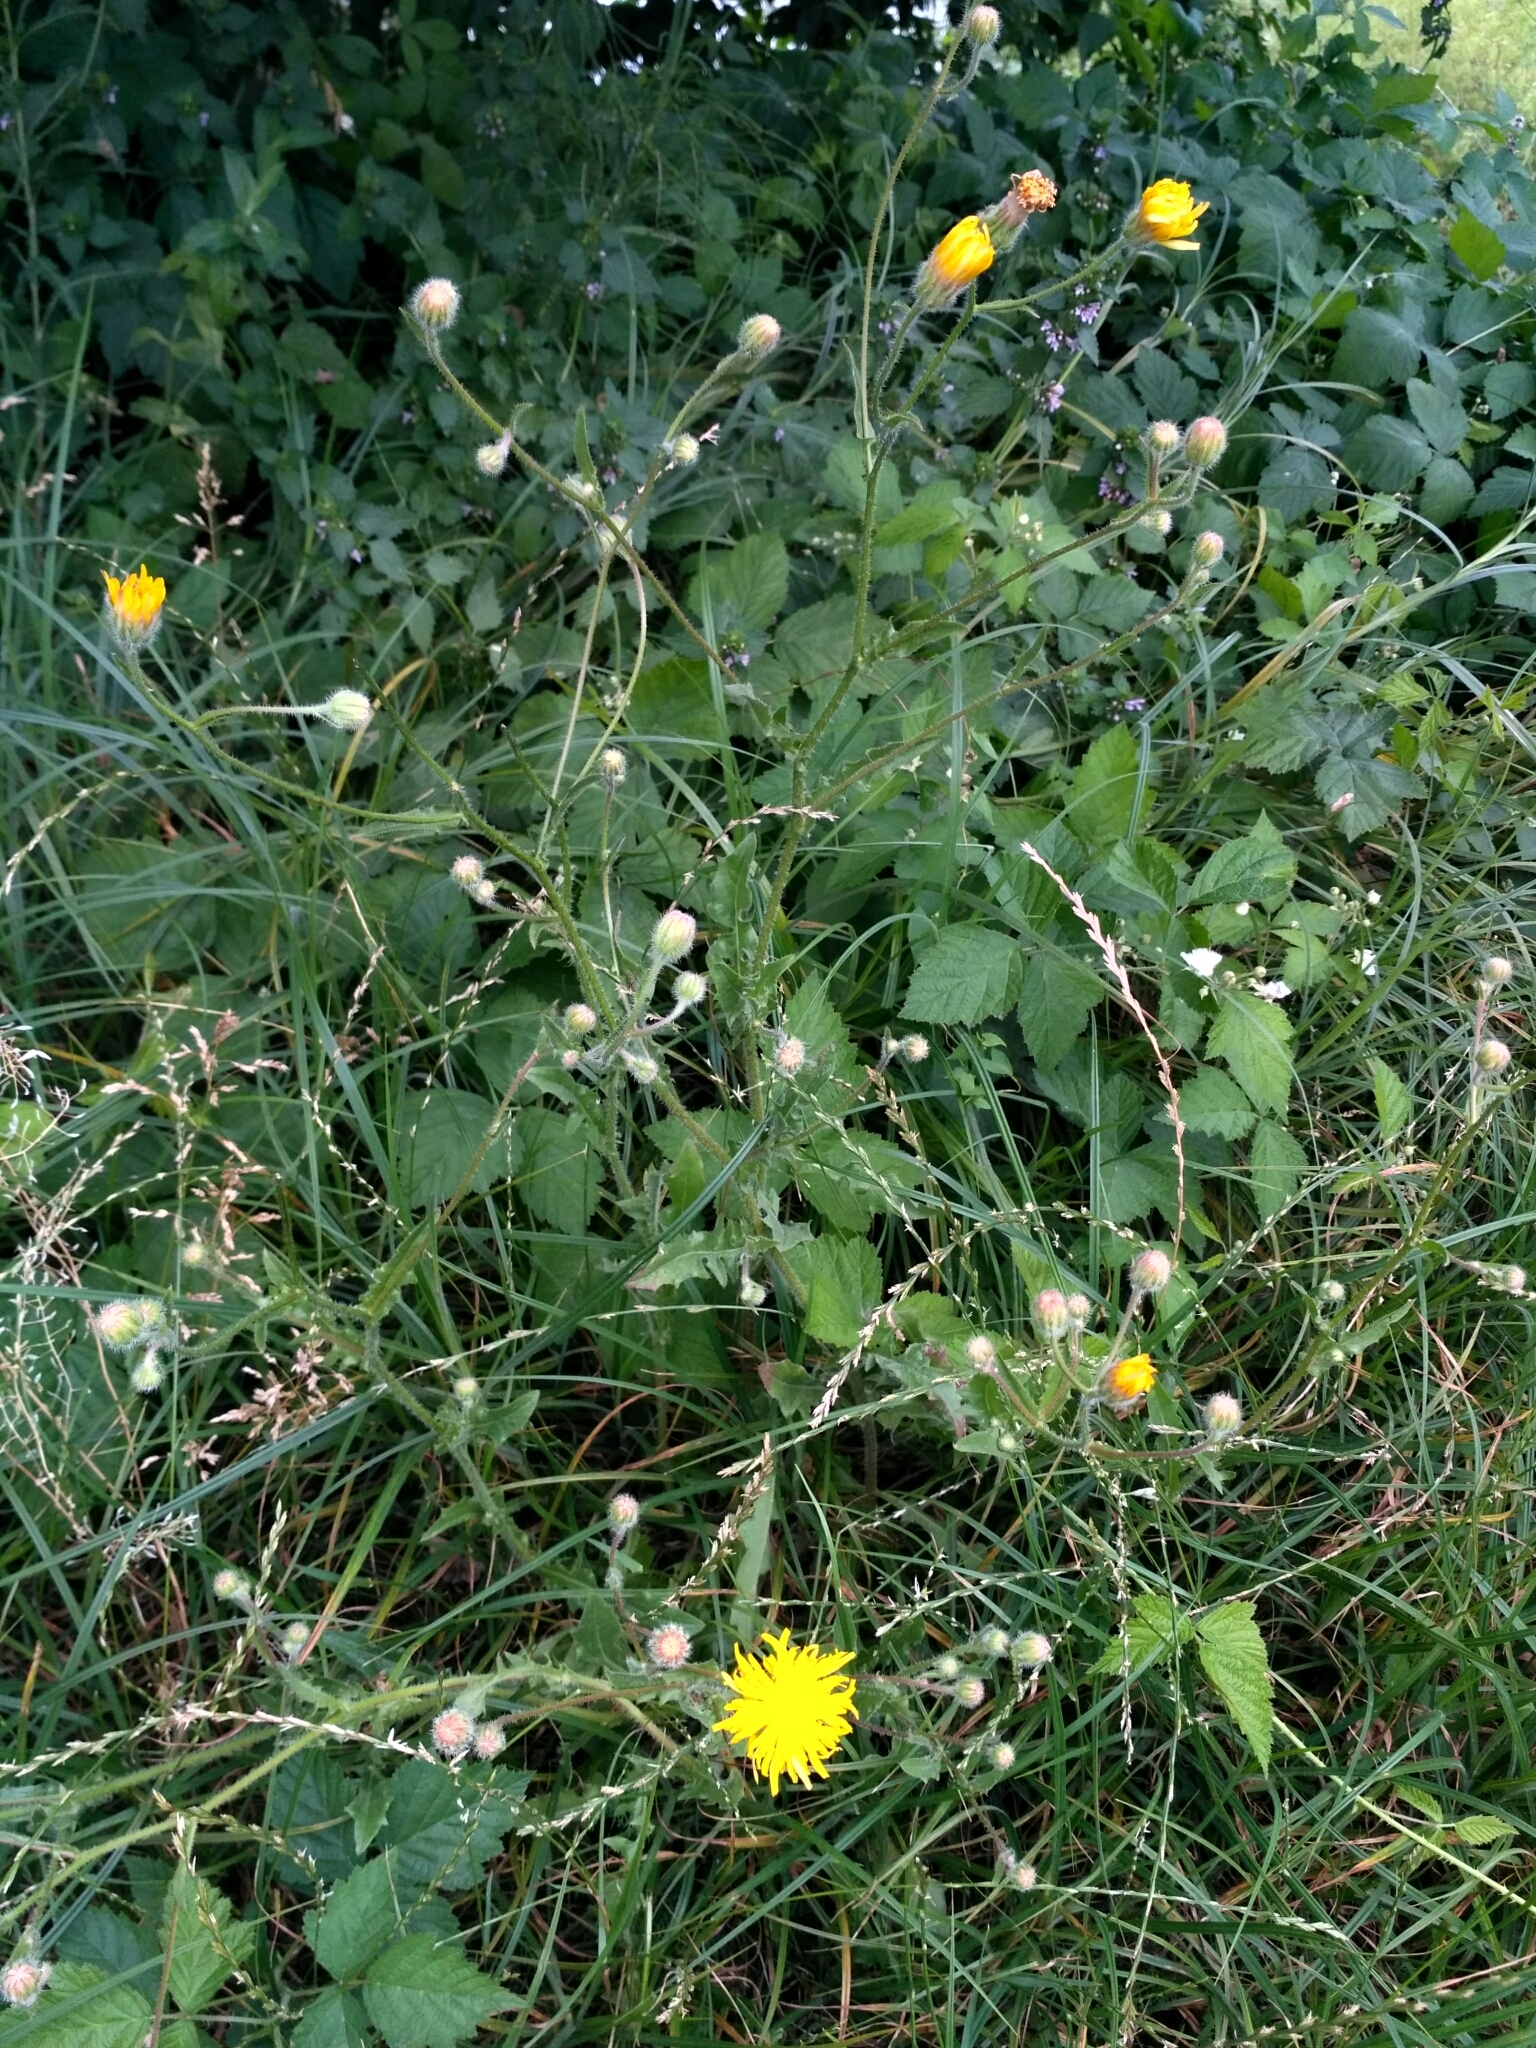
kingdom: Plantae
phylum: Tracheophyta
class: Magnoliopsida
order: Asterales
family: Asteraceae
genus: Crepis
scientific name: Crepis foetida
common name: Stinking hawk's-beard
